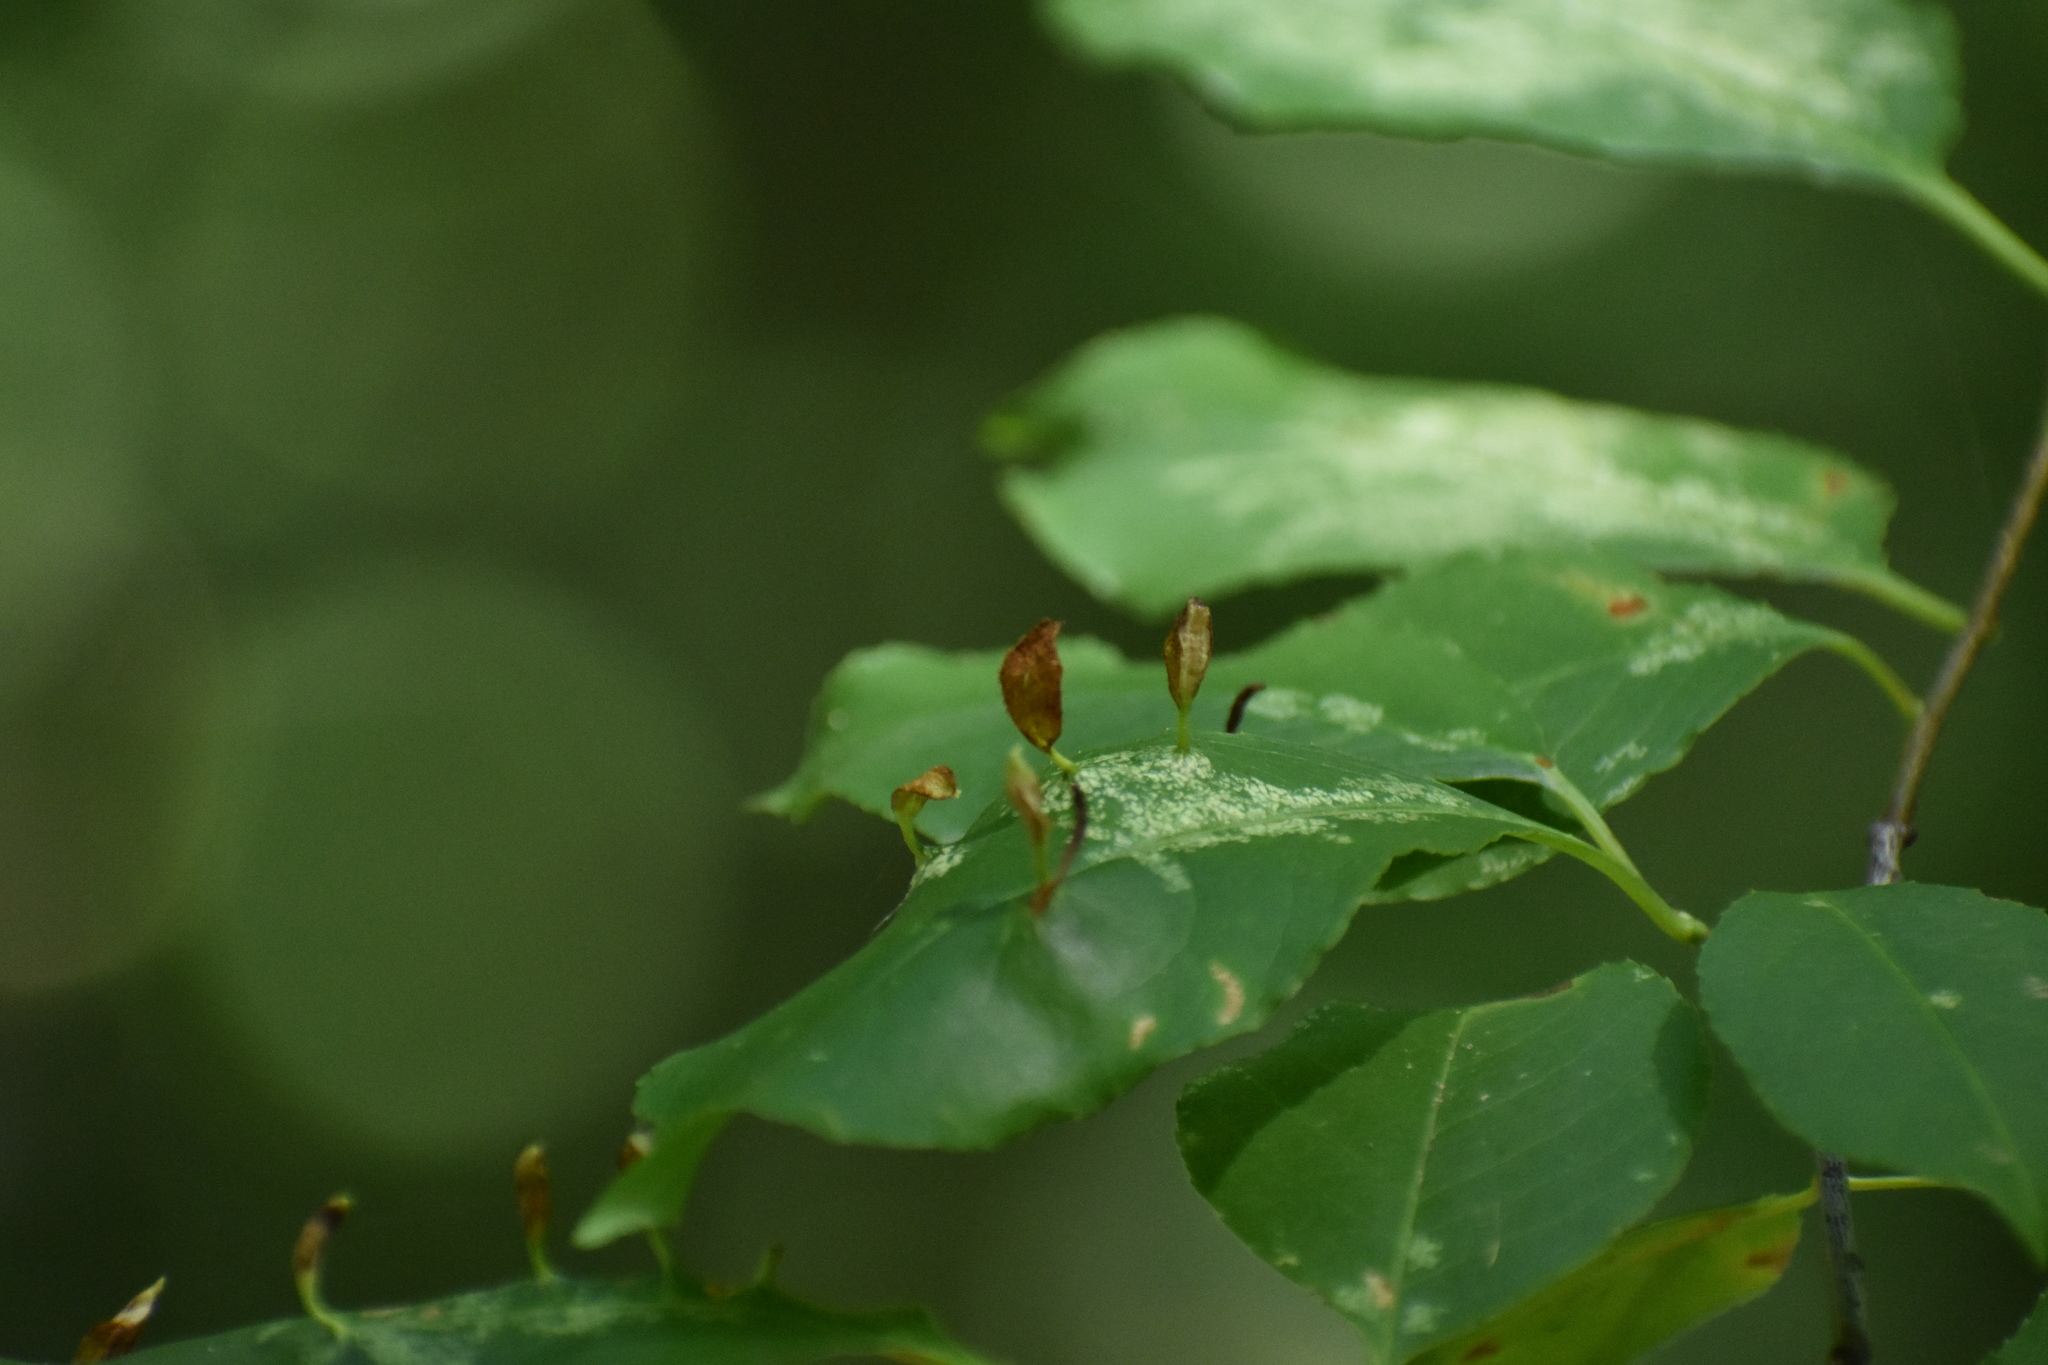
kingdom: Animalia
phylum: Arthropoda
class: Arachnida
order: Trombidiformes
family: Eriophyidae
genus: Eriophyes
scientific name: Eriophyes
